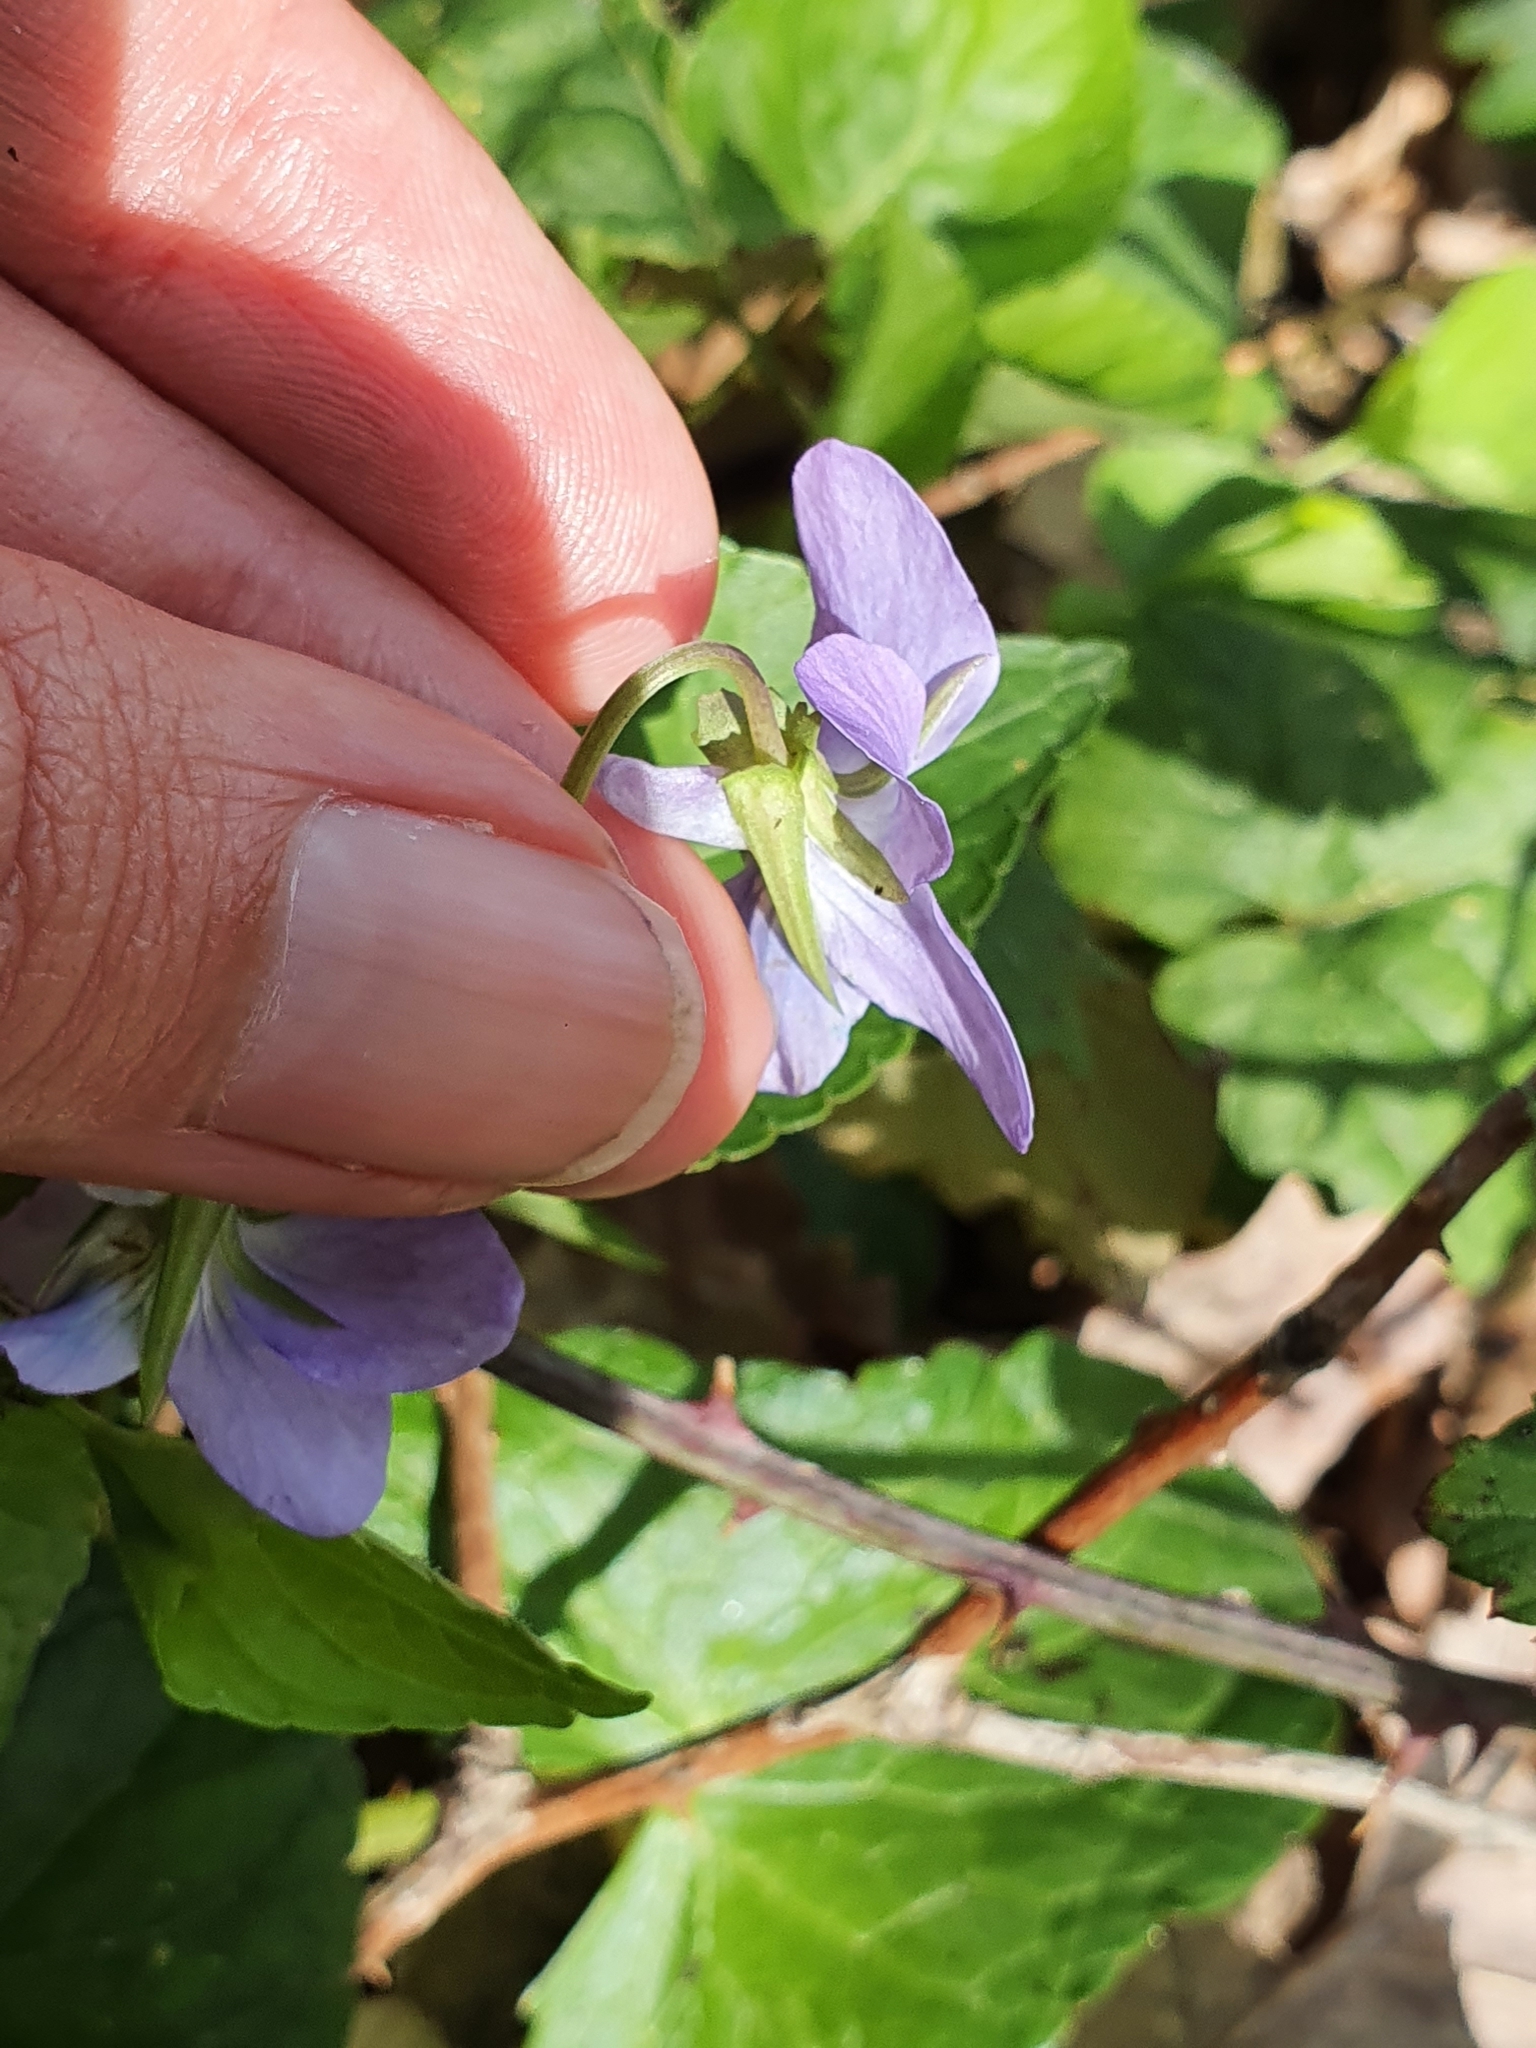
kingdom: Plantae
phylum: Tracheophyta
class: Magnoliopsida
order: Malpighiales
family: Violaceae
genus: Viola
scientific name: Viola reichenbachiana
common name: Early dog-violet
